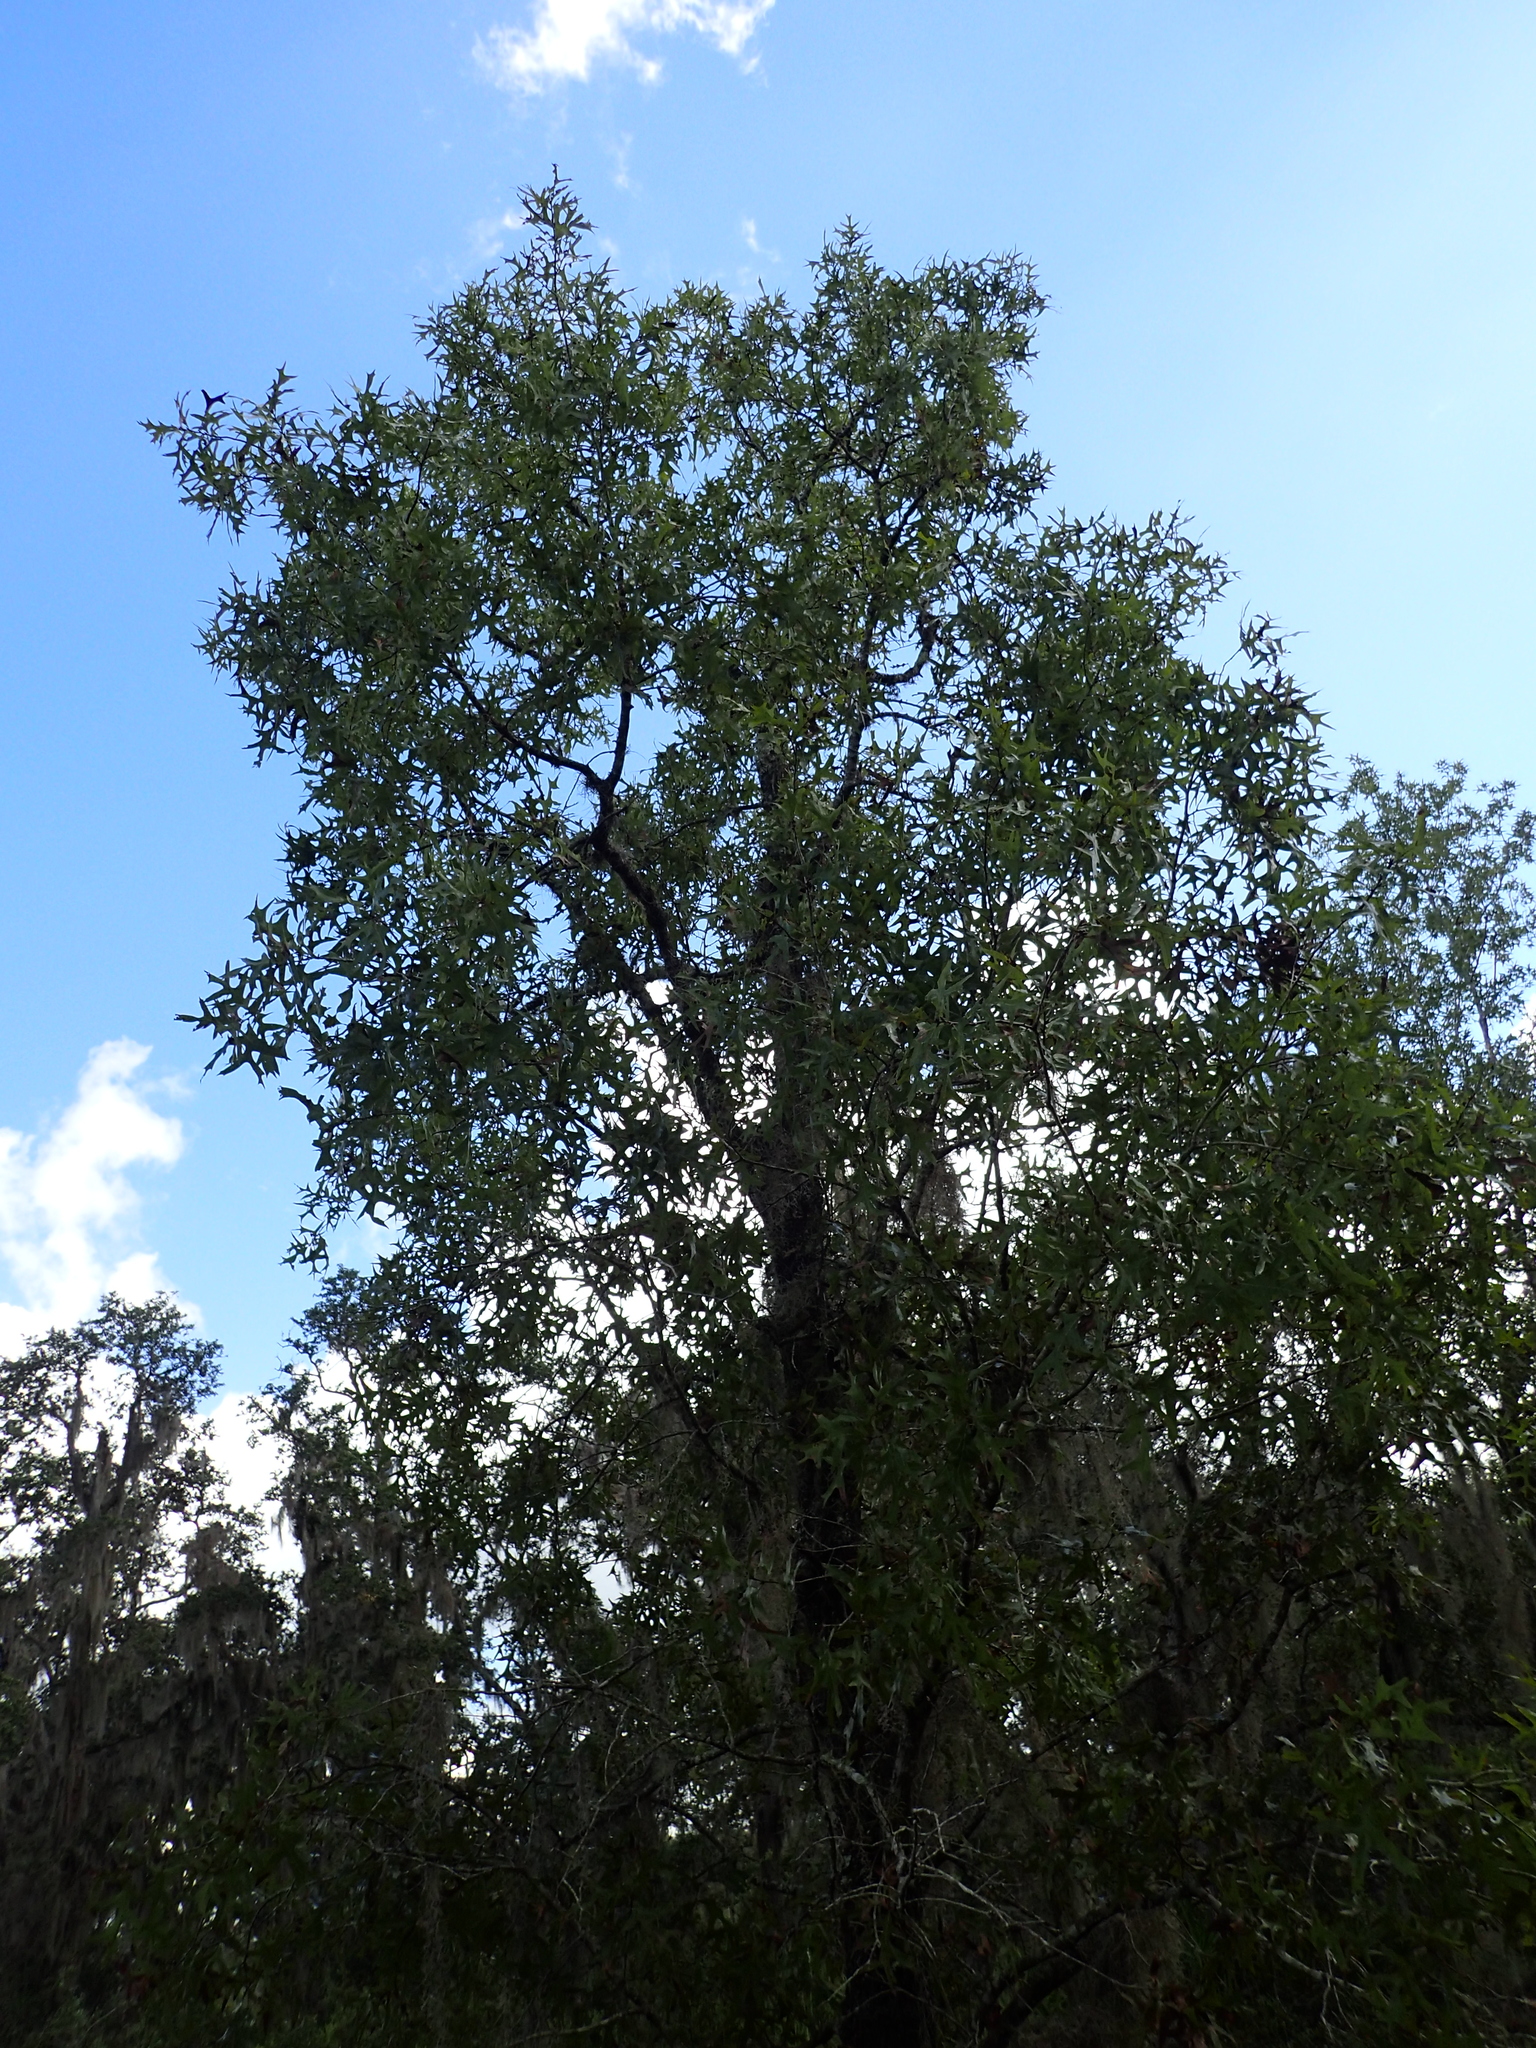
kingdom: Plantae
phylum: Tracheophyta
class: Magnoliopsida
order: Fagales
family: Fagaceae
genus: Quercus
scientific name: Quercus laevis
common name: Turkey oak
